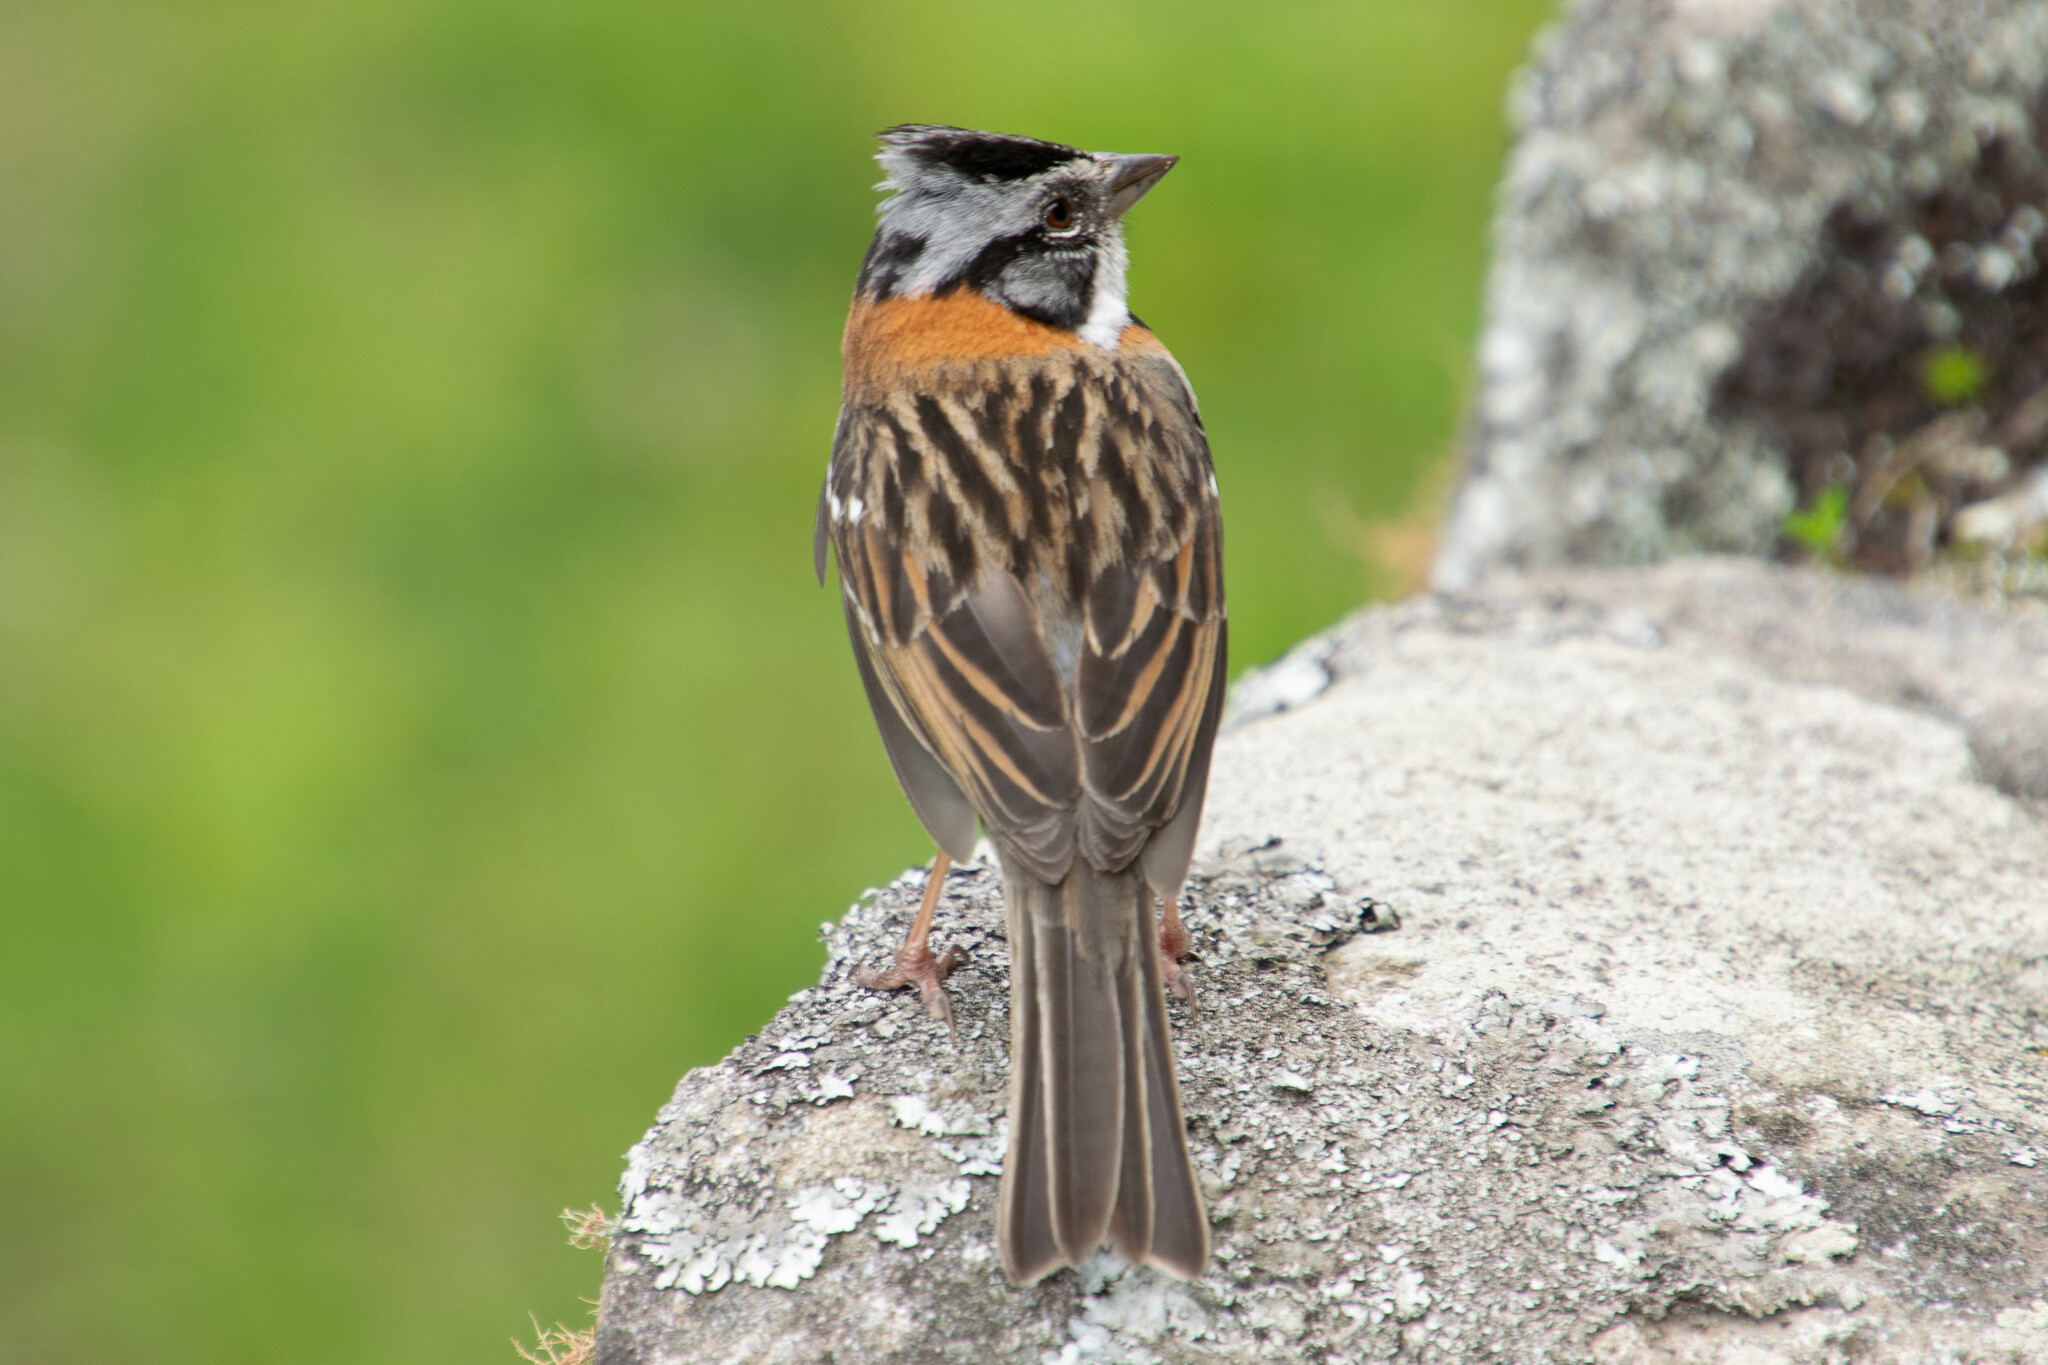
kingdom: Animalia
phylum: Chordata
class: Aves
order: Passeriformes
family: Passerellidae
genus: Zonotrichia
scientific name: Zonotrichia capensis
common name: Rufous-collared sparrow
